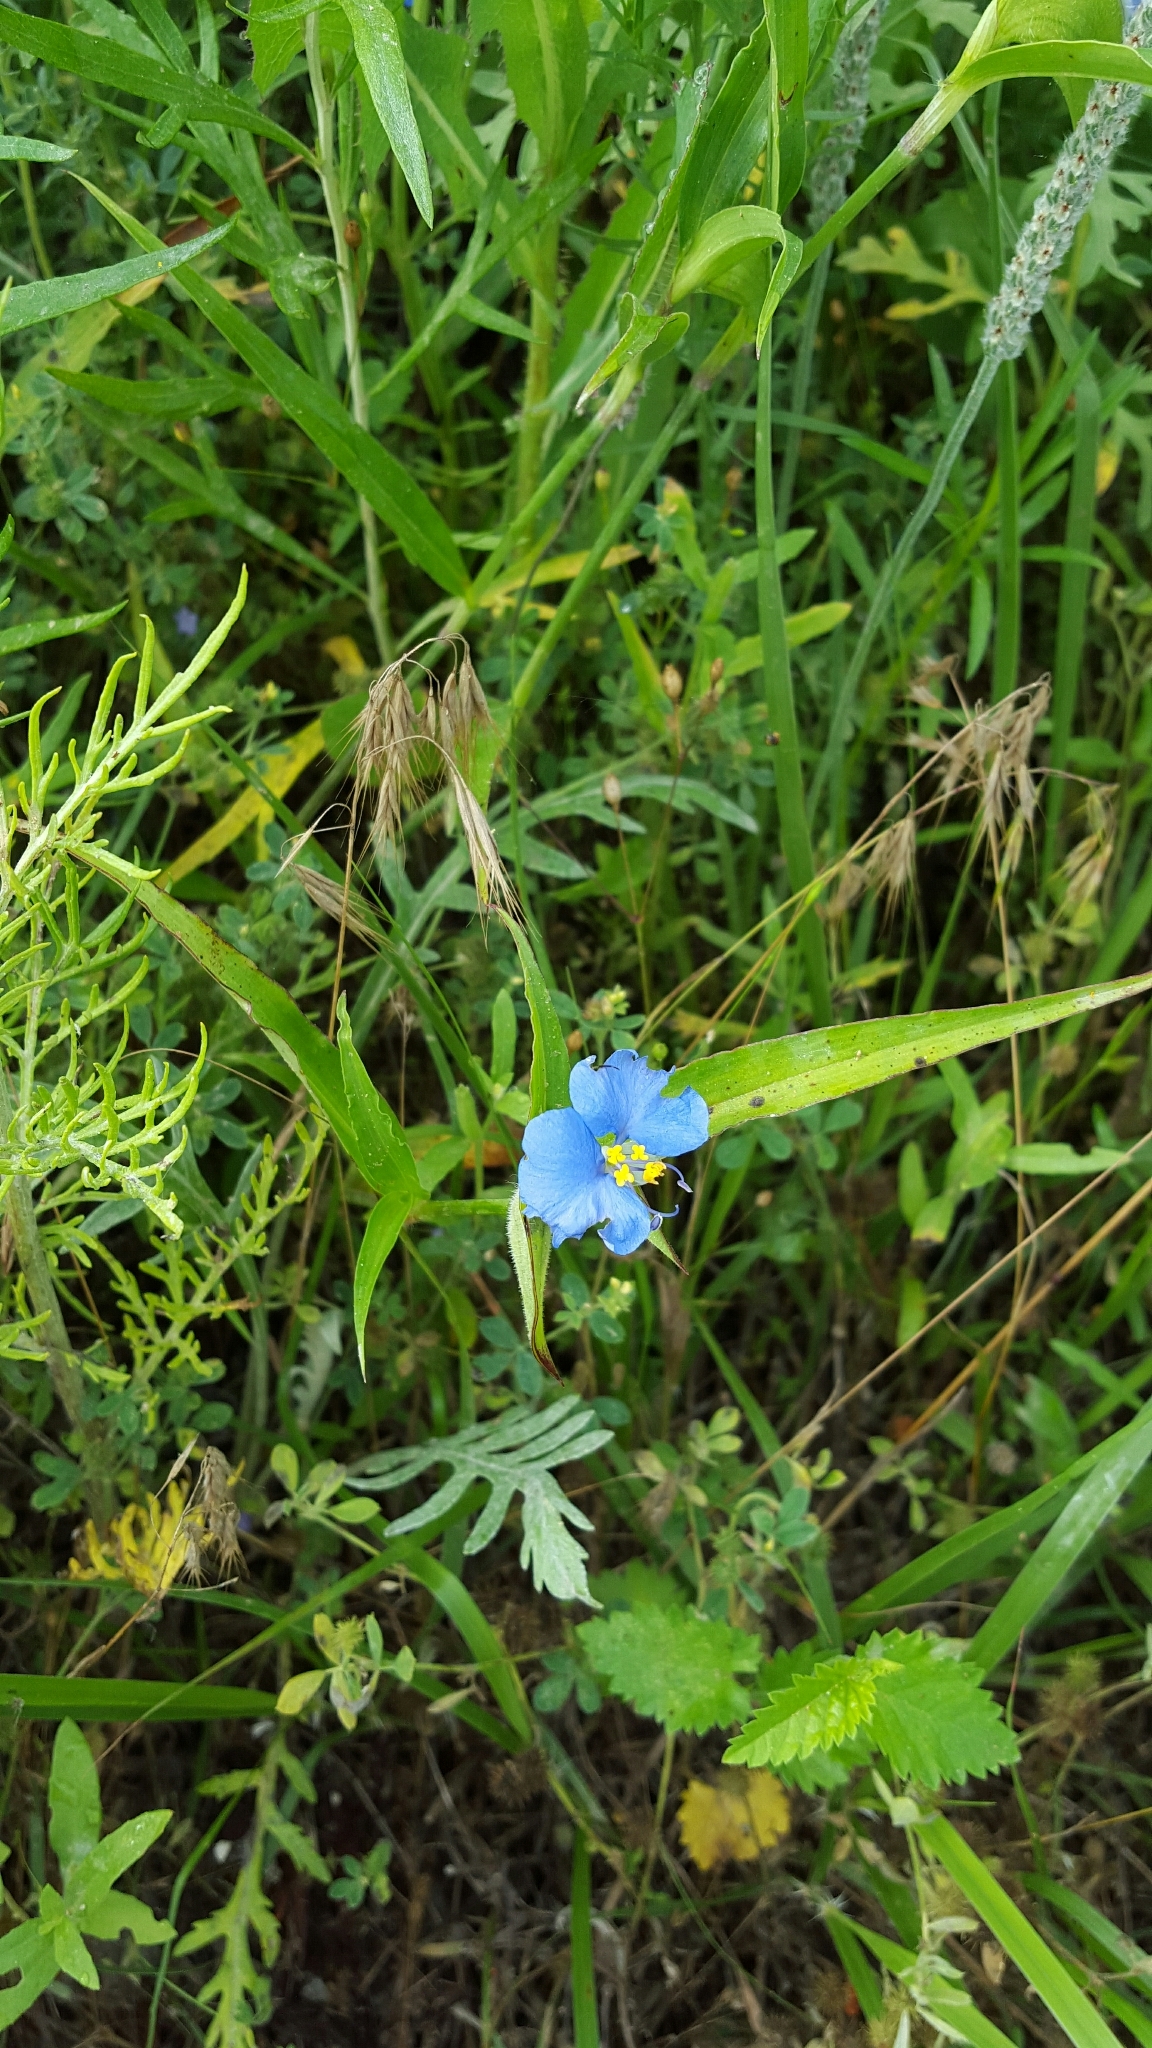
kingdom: Plantae
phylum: Tracheophyta
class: Liliopsida
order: Commelinales
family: Commelinaceae
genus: Commelina
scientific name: Commelina erecta
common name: Blousel blommetjie
